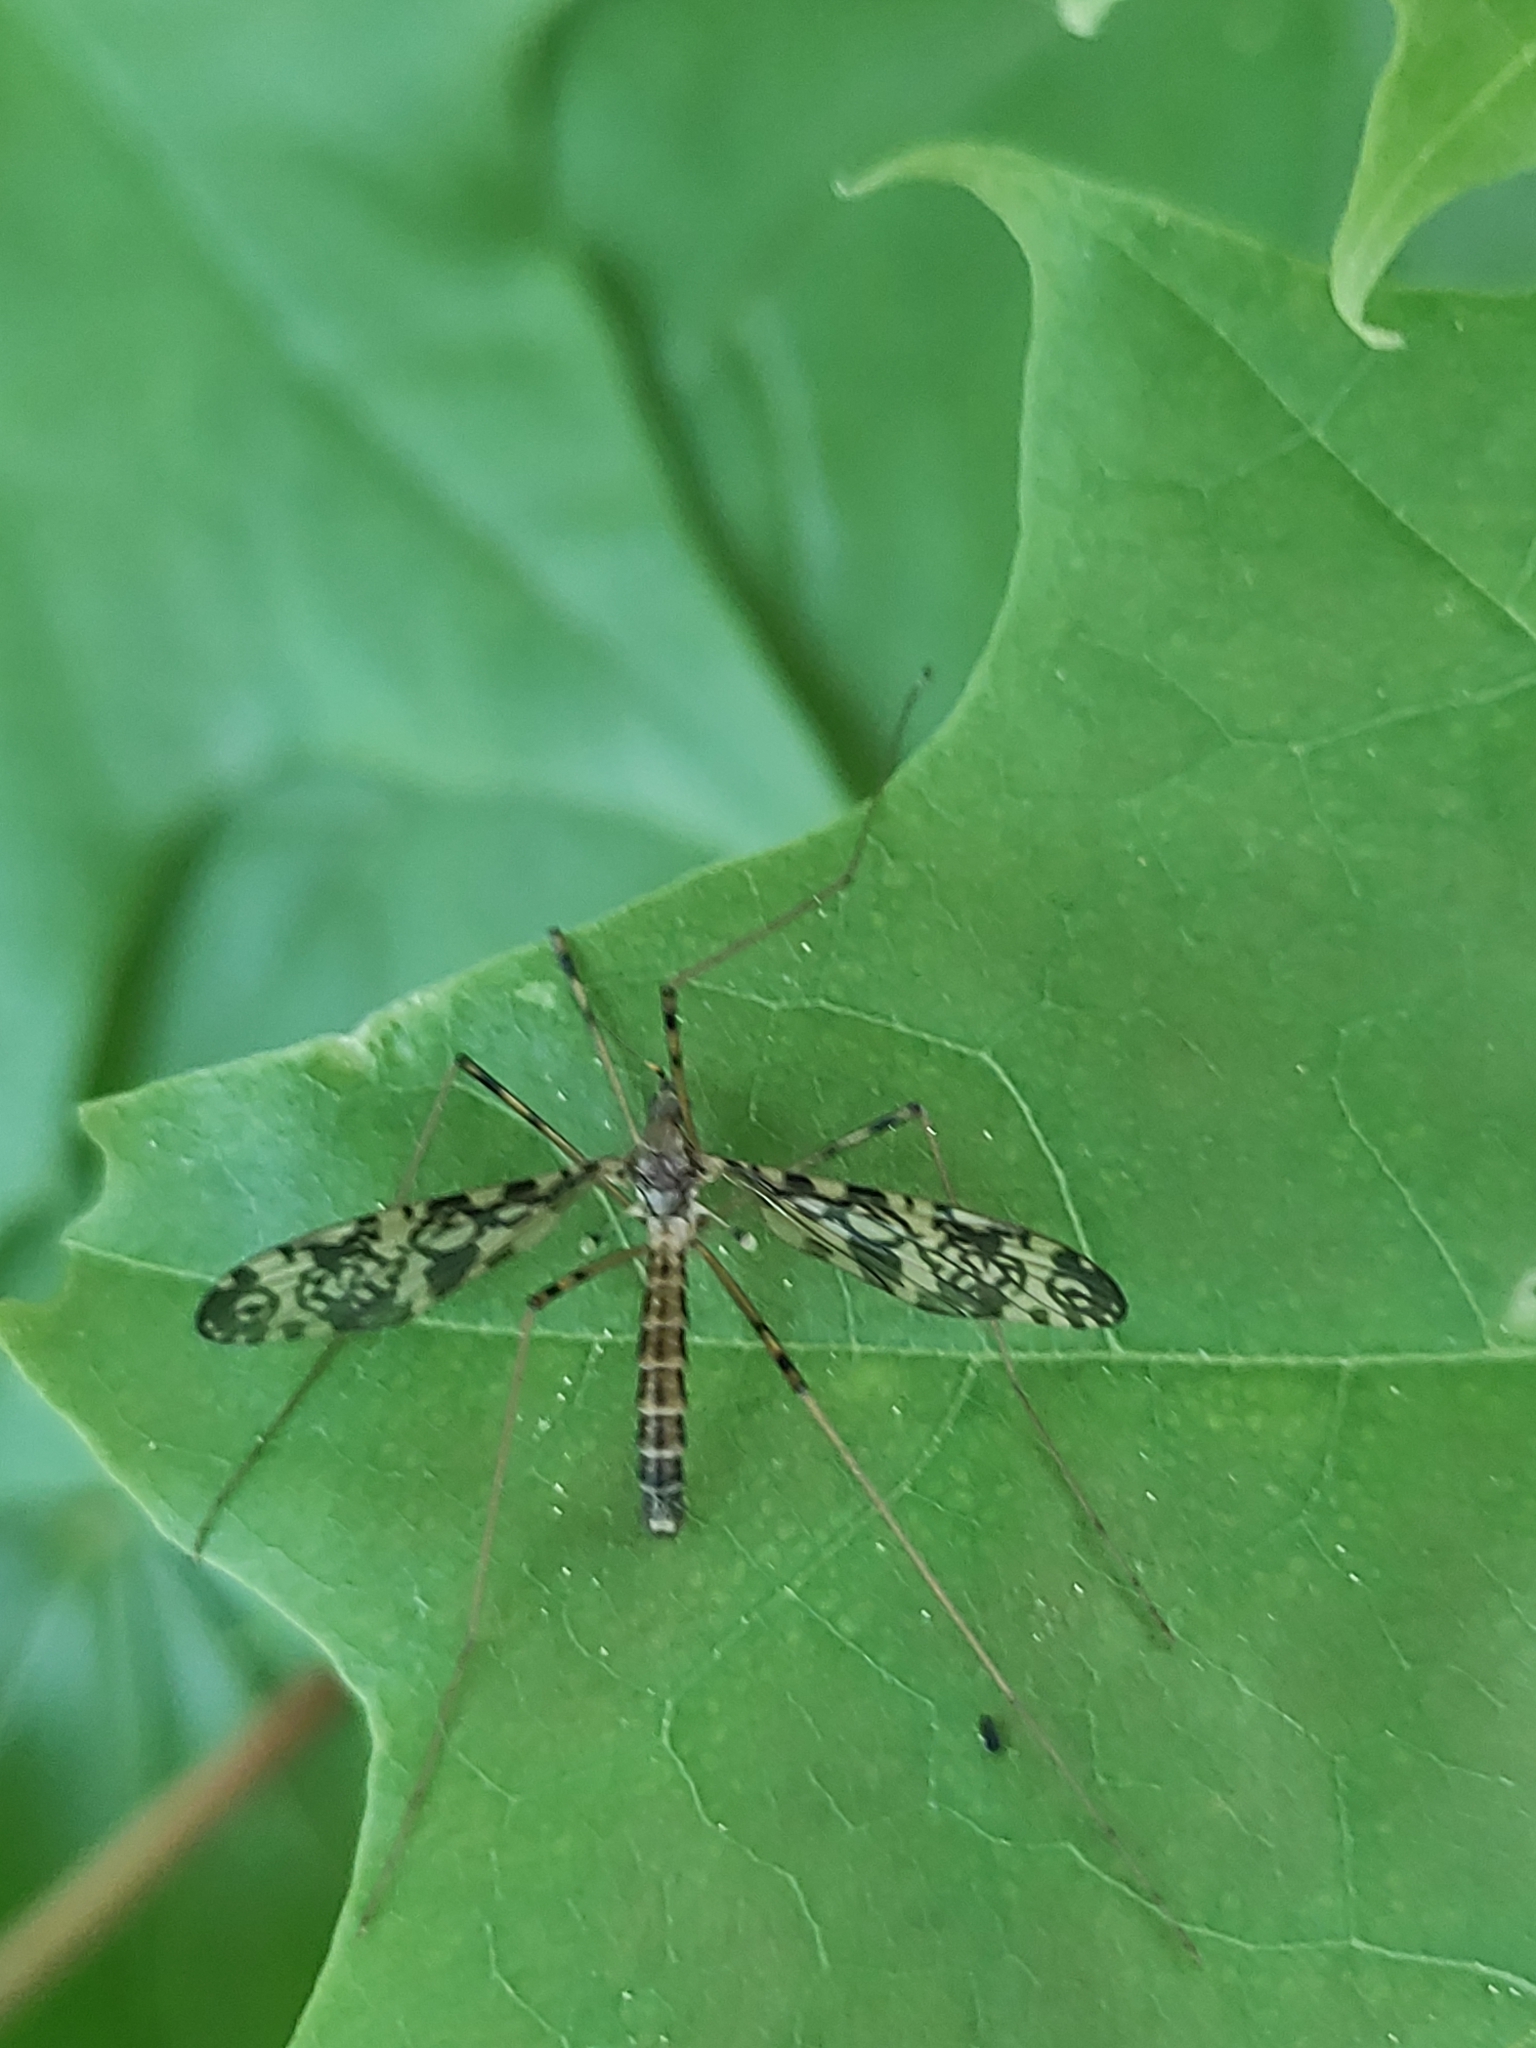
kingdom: Animalia
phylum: Arthropoda
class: Insecta
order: Diptera
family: Limoniidae
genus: Epiphragma
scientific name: Epiphragma ocellare
